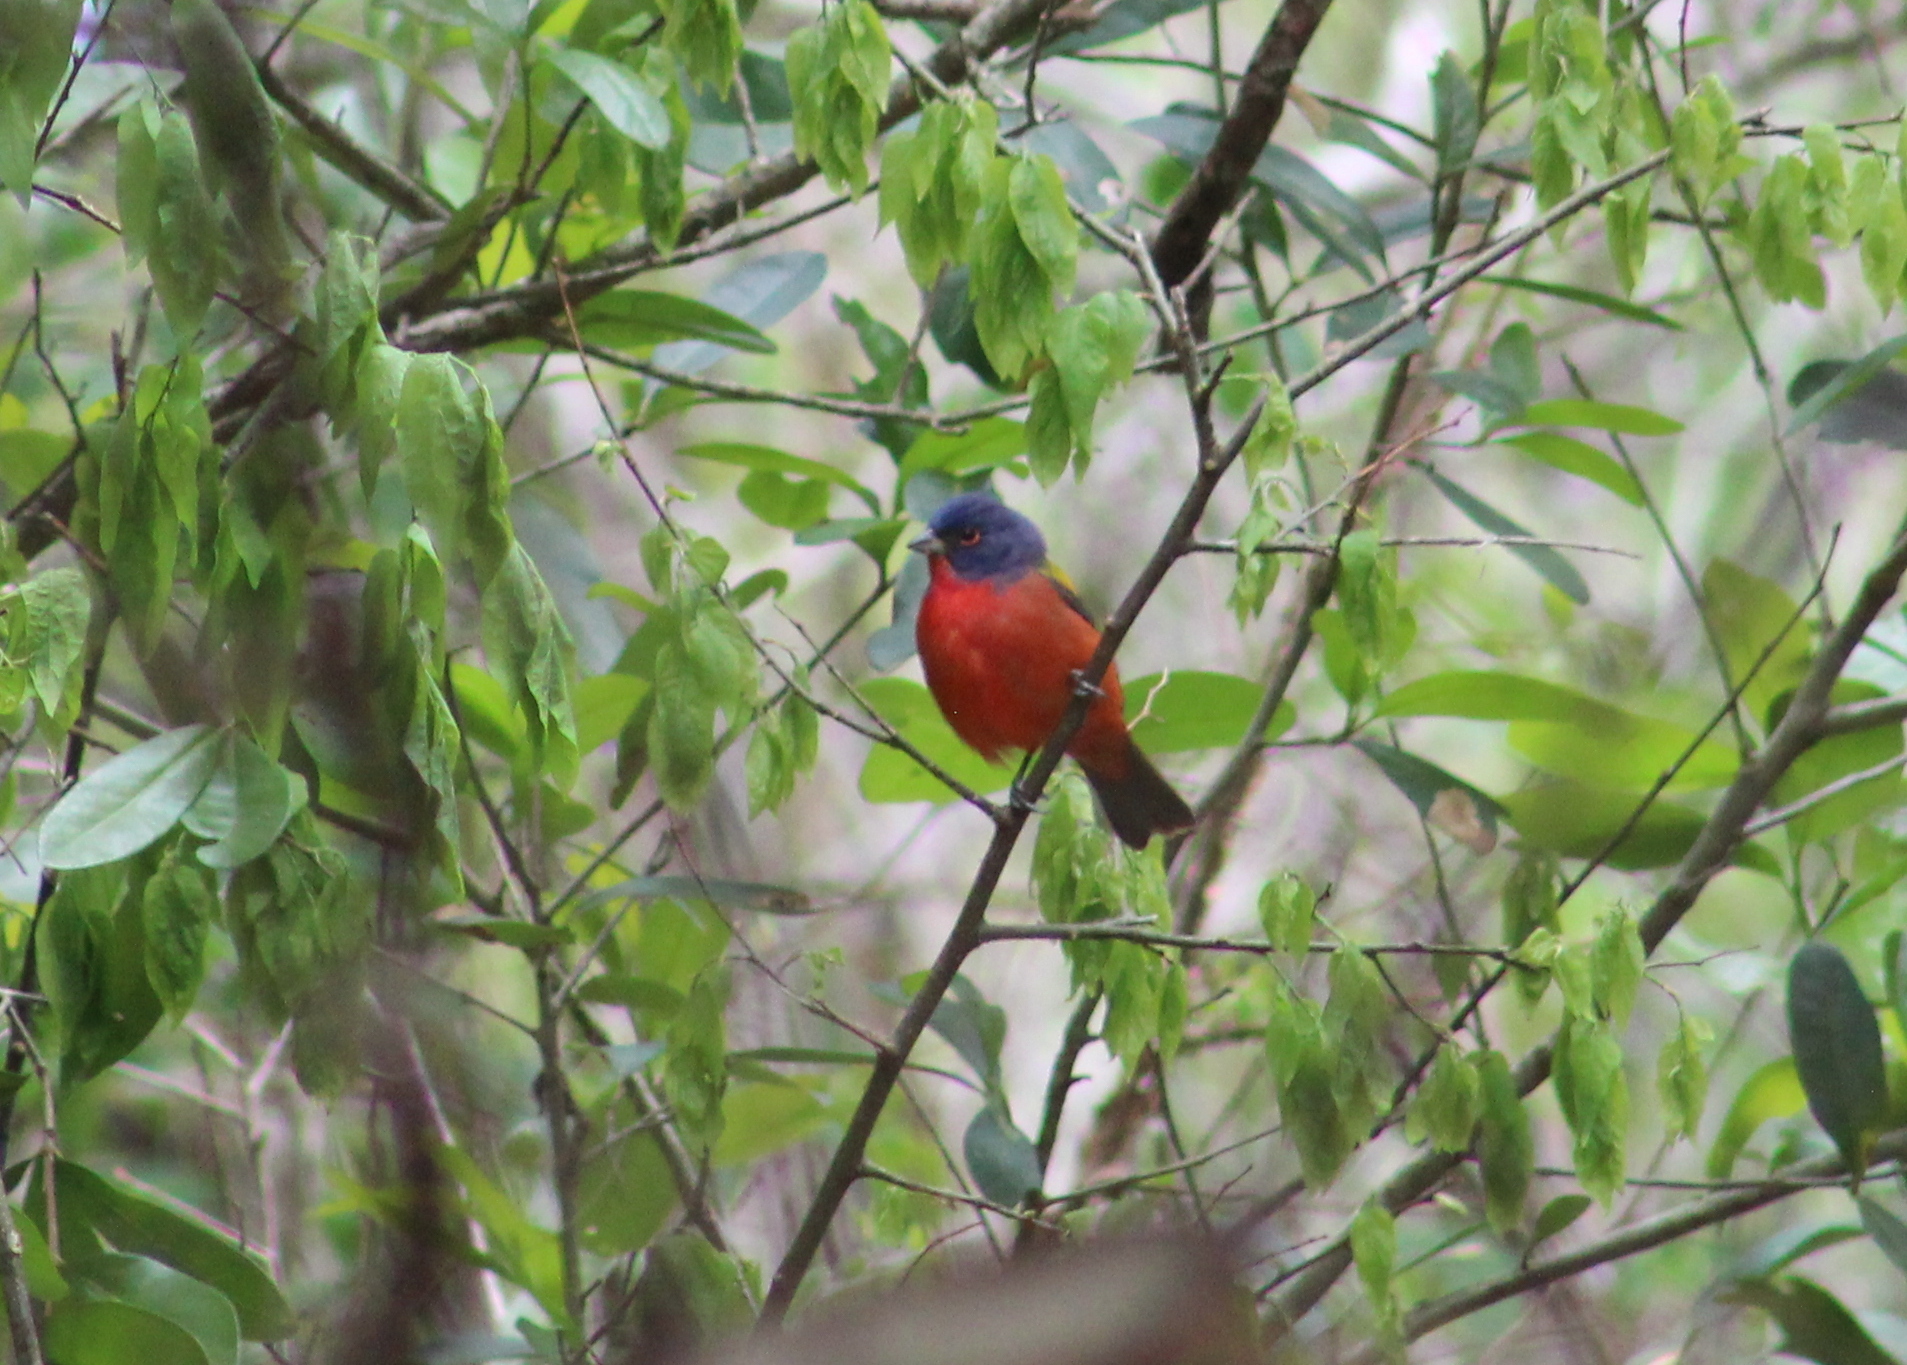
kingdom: Animalia
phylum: Chordata
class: Aves
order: Passeriformes
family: Cardinalidae
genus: Passerina
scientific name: Passerina ciris
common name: Painted bunting
